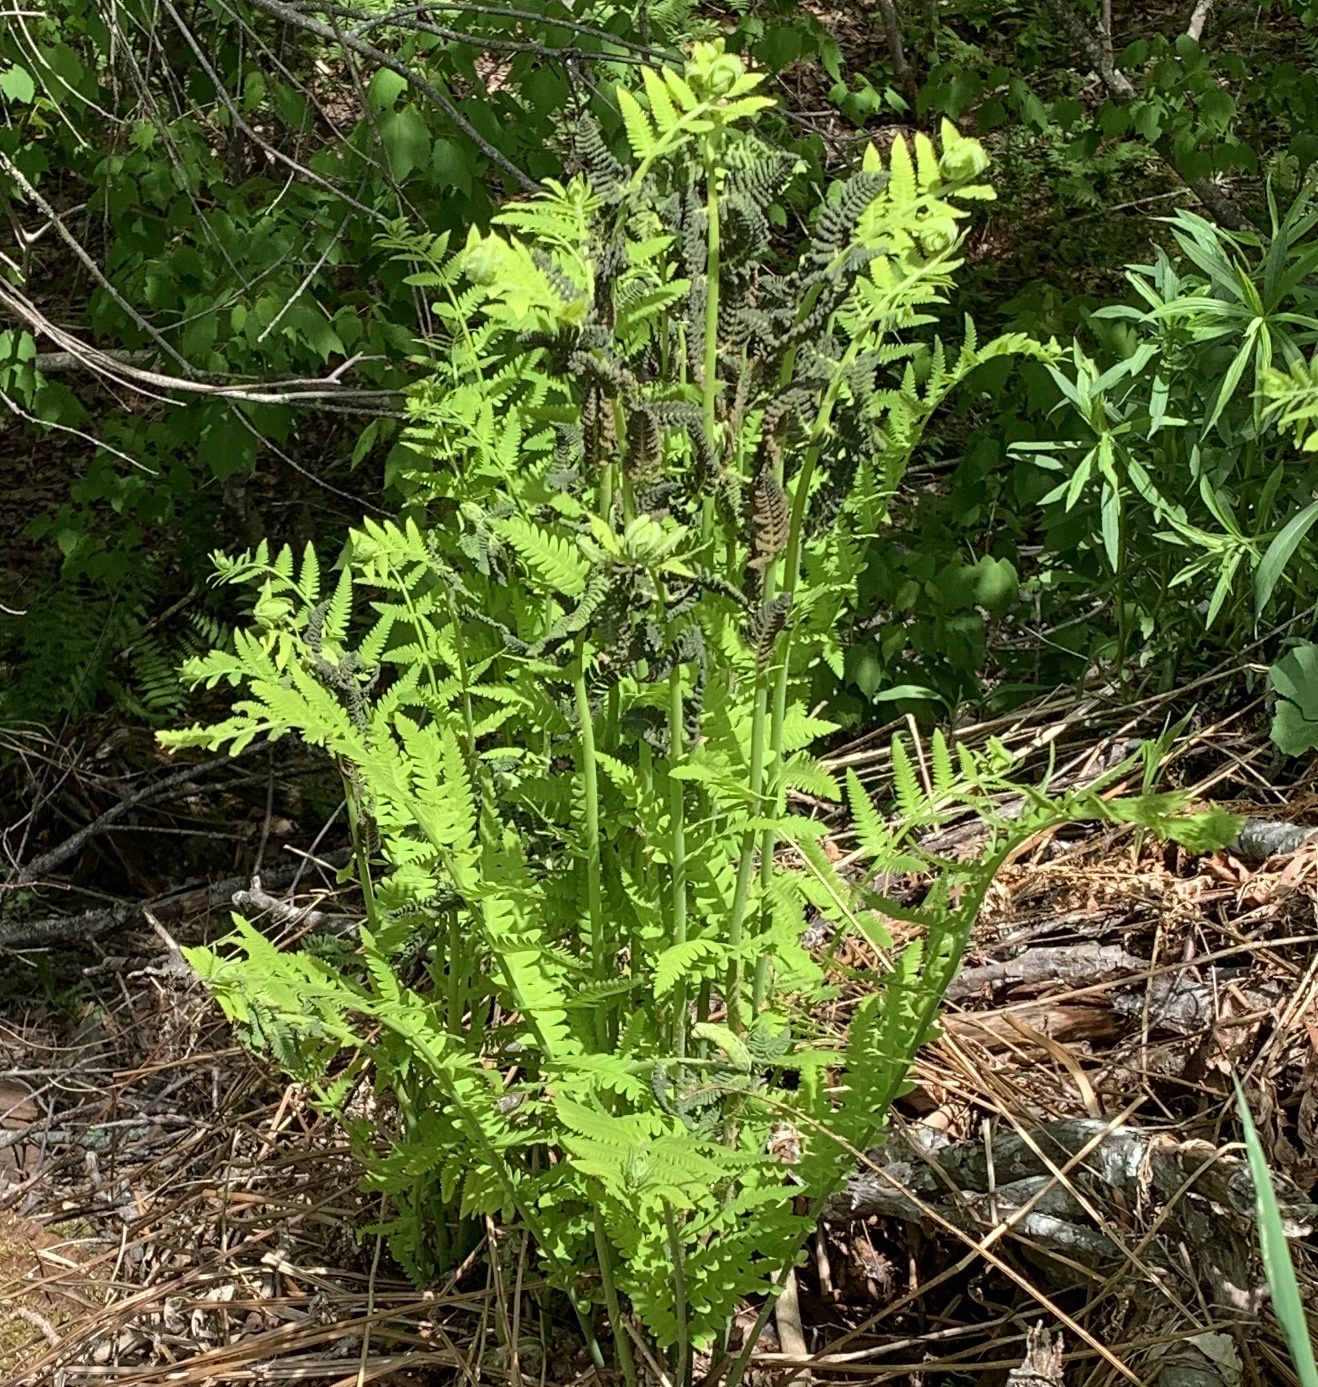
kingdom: Plantae
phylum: Tracheophyta
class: Polypodiopsida
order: Osmundales
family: Osmundaceae
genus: Claytosmunda
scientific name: Claytosmunda claytoniana
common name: Clayton's fern
